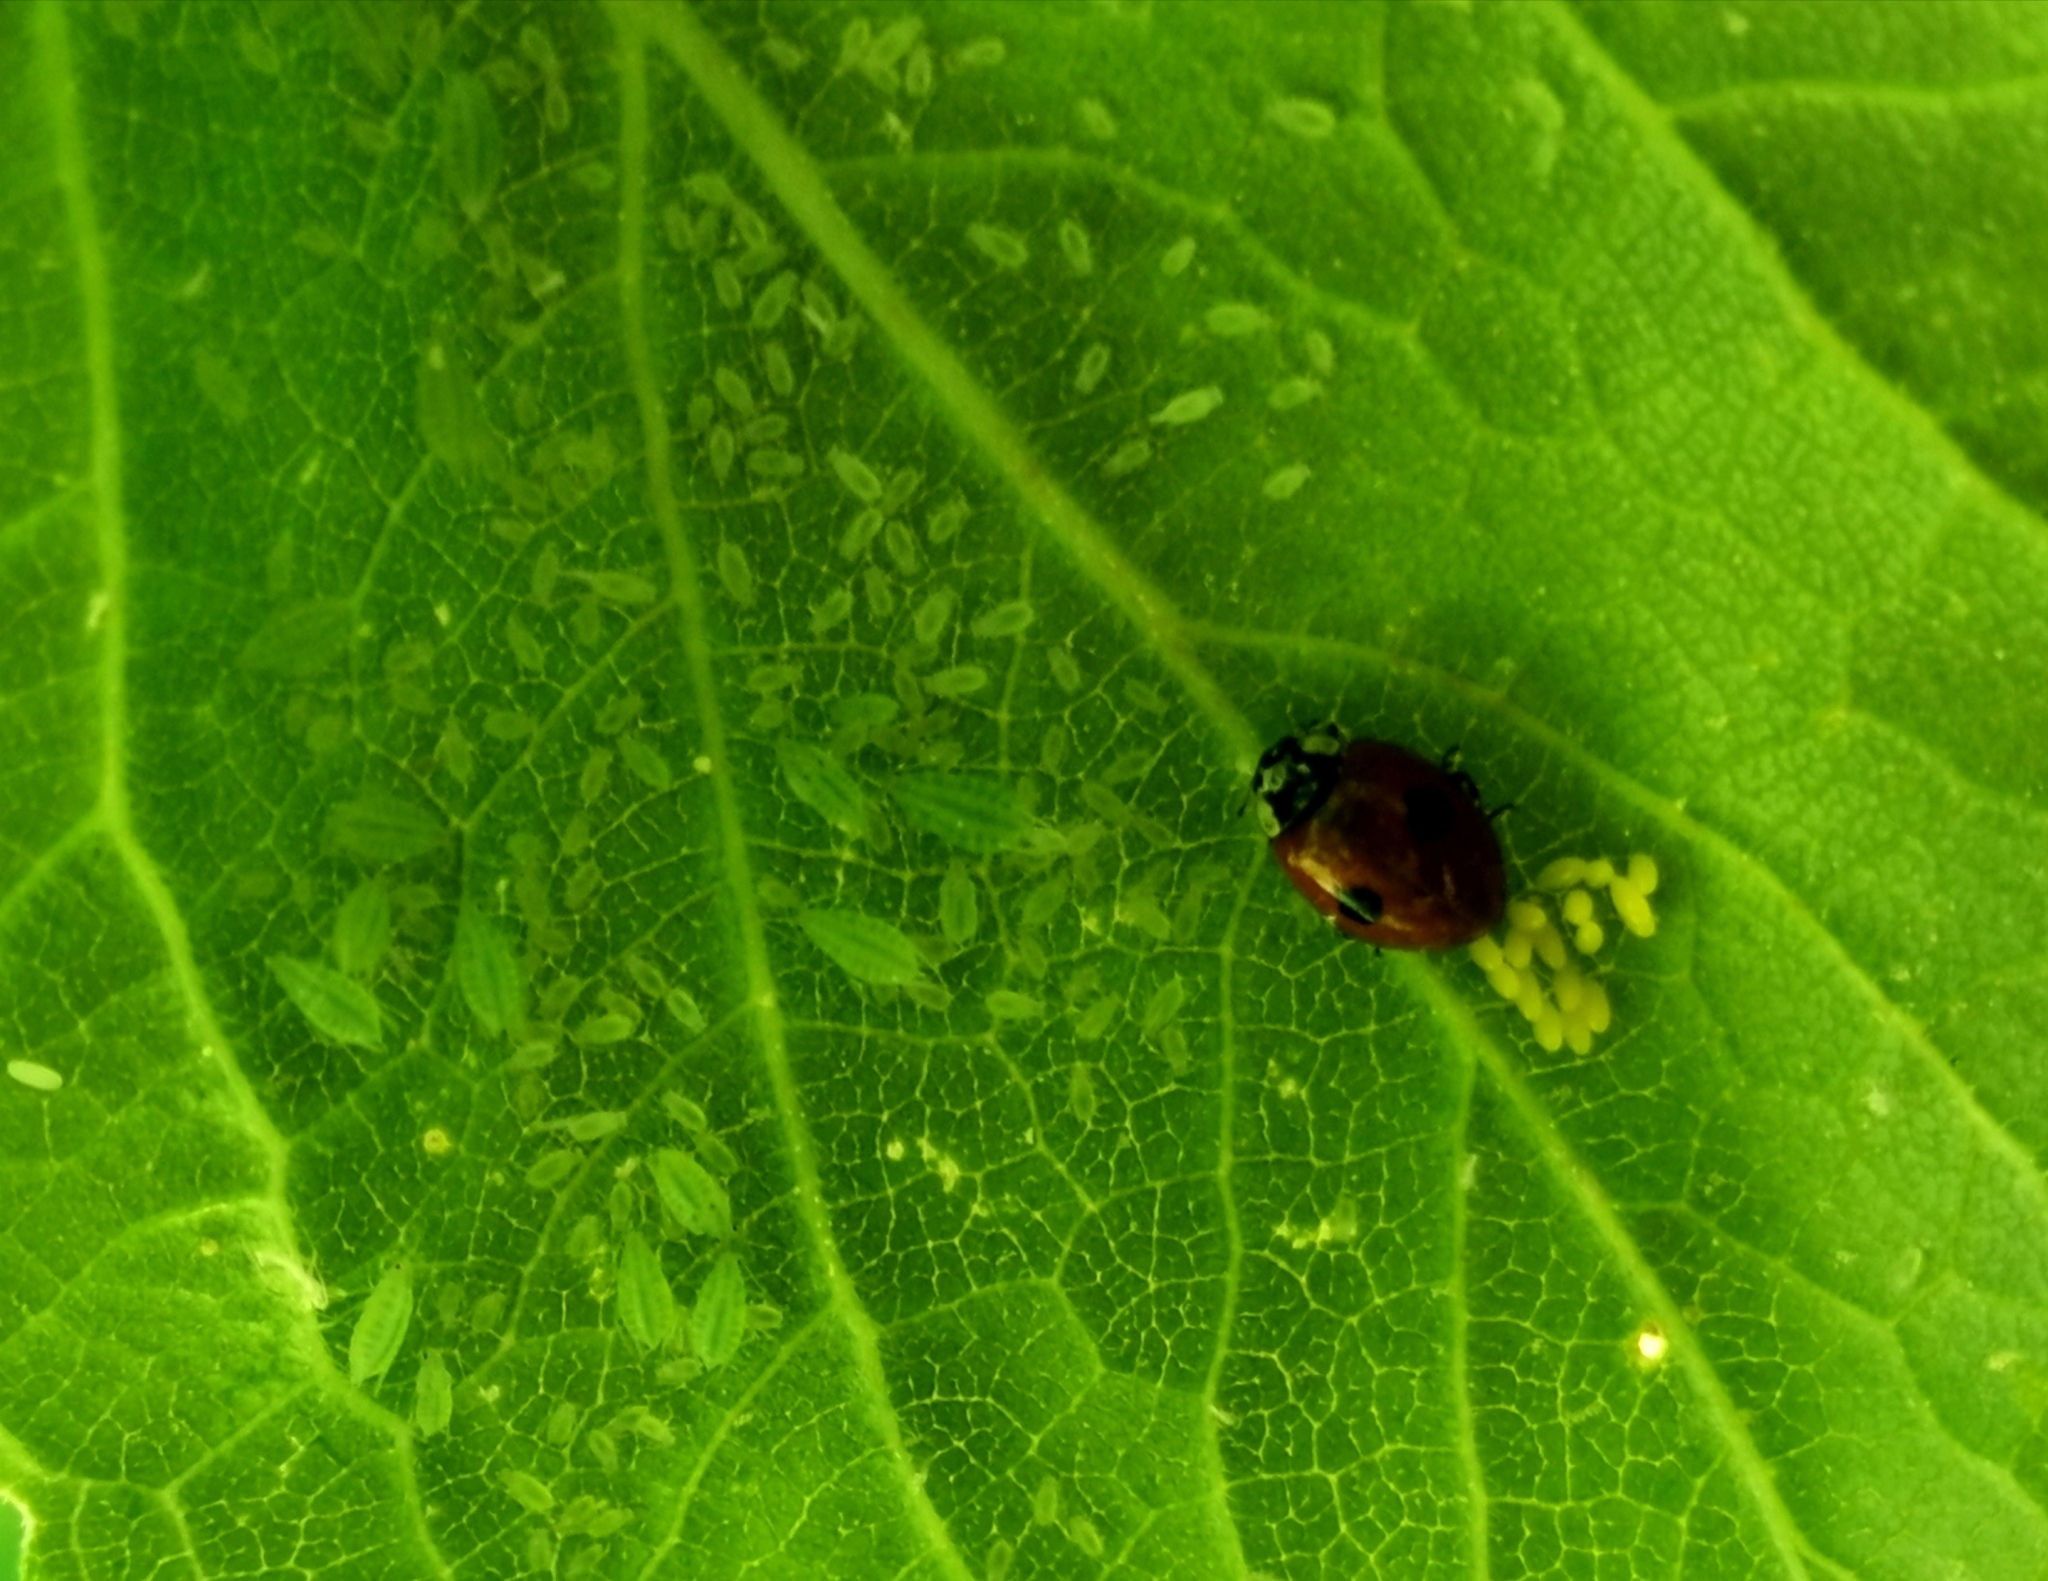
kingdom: Animalia
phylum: Arthropoda
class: Insecta
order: Coleoptera
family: Coccinellidae
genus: Adalia
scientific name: Adalia bipunctata
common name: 2-spot ladybird
